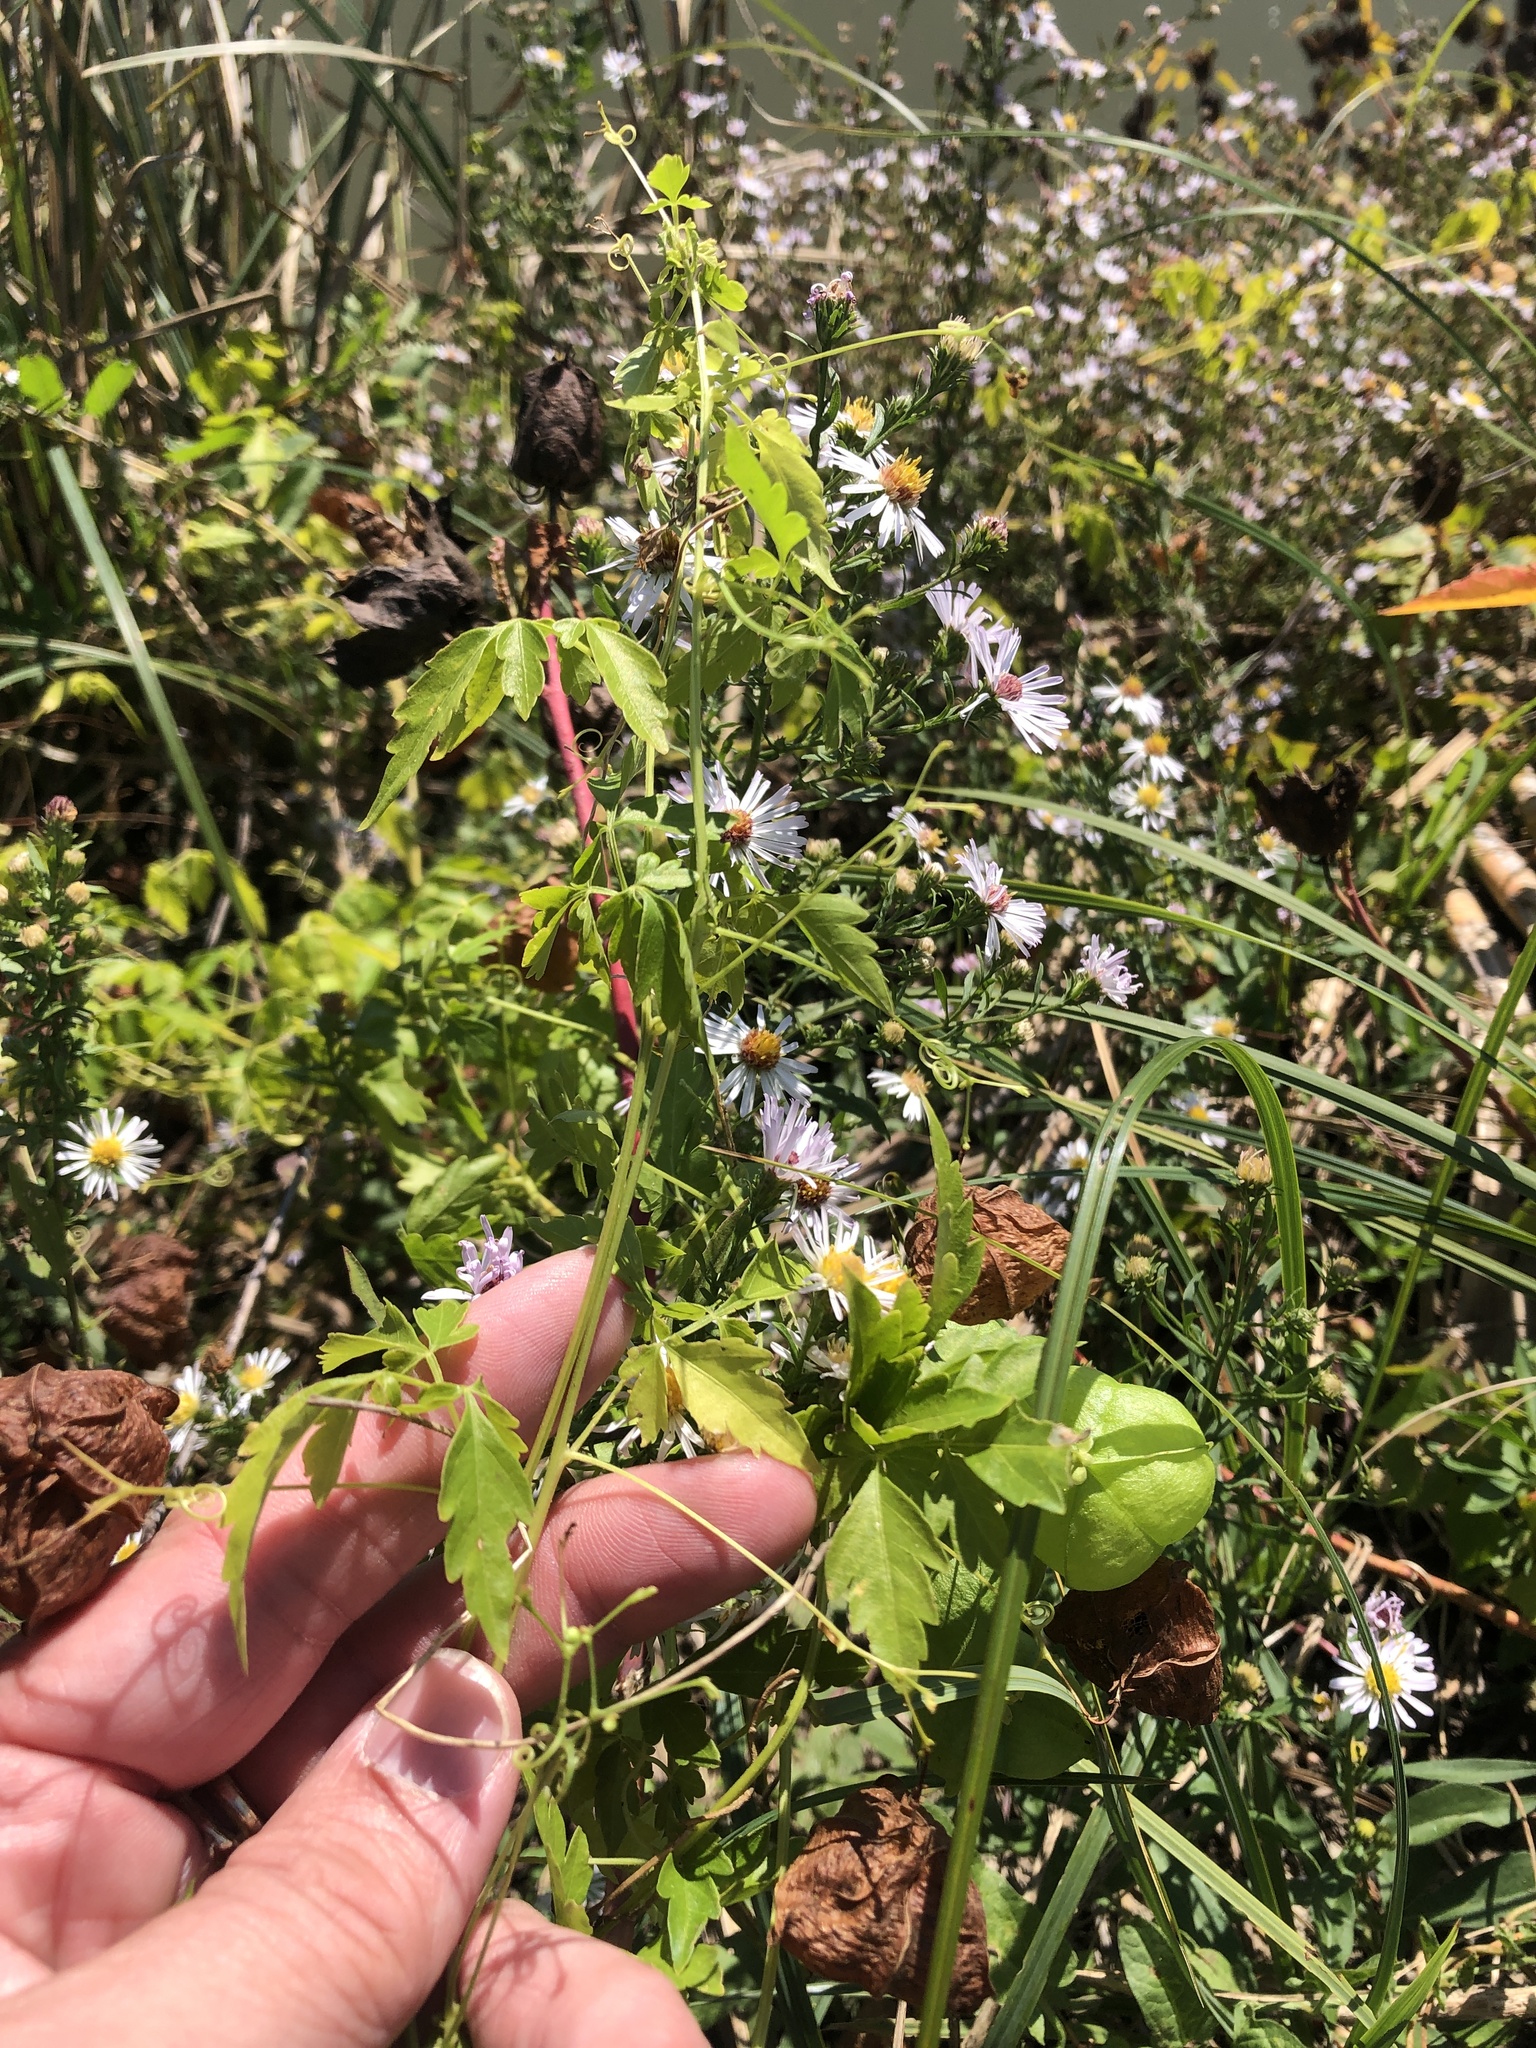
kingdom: Plantae
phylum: Tracheophyta
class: Magnoliopsida
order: Sapindales
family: Sapindaceae
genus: Cardiospermum
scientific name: Cardiospermum halicacabum
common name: Balloon vine
